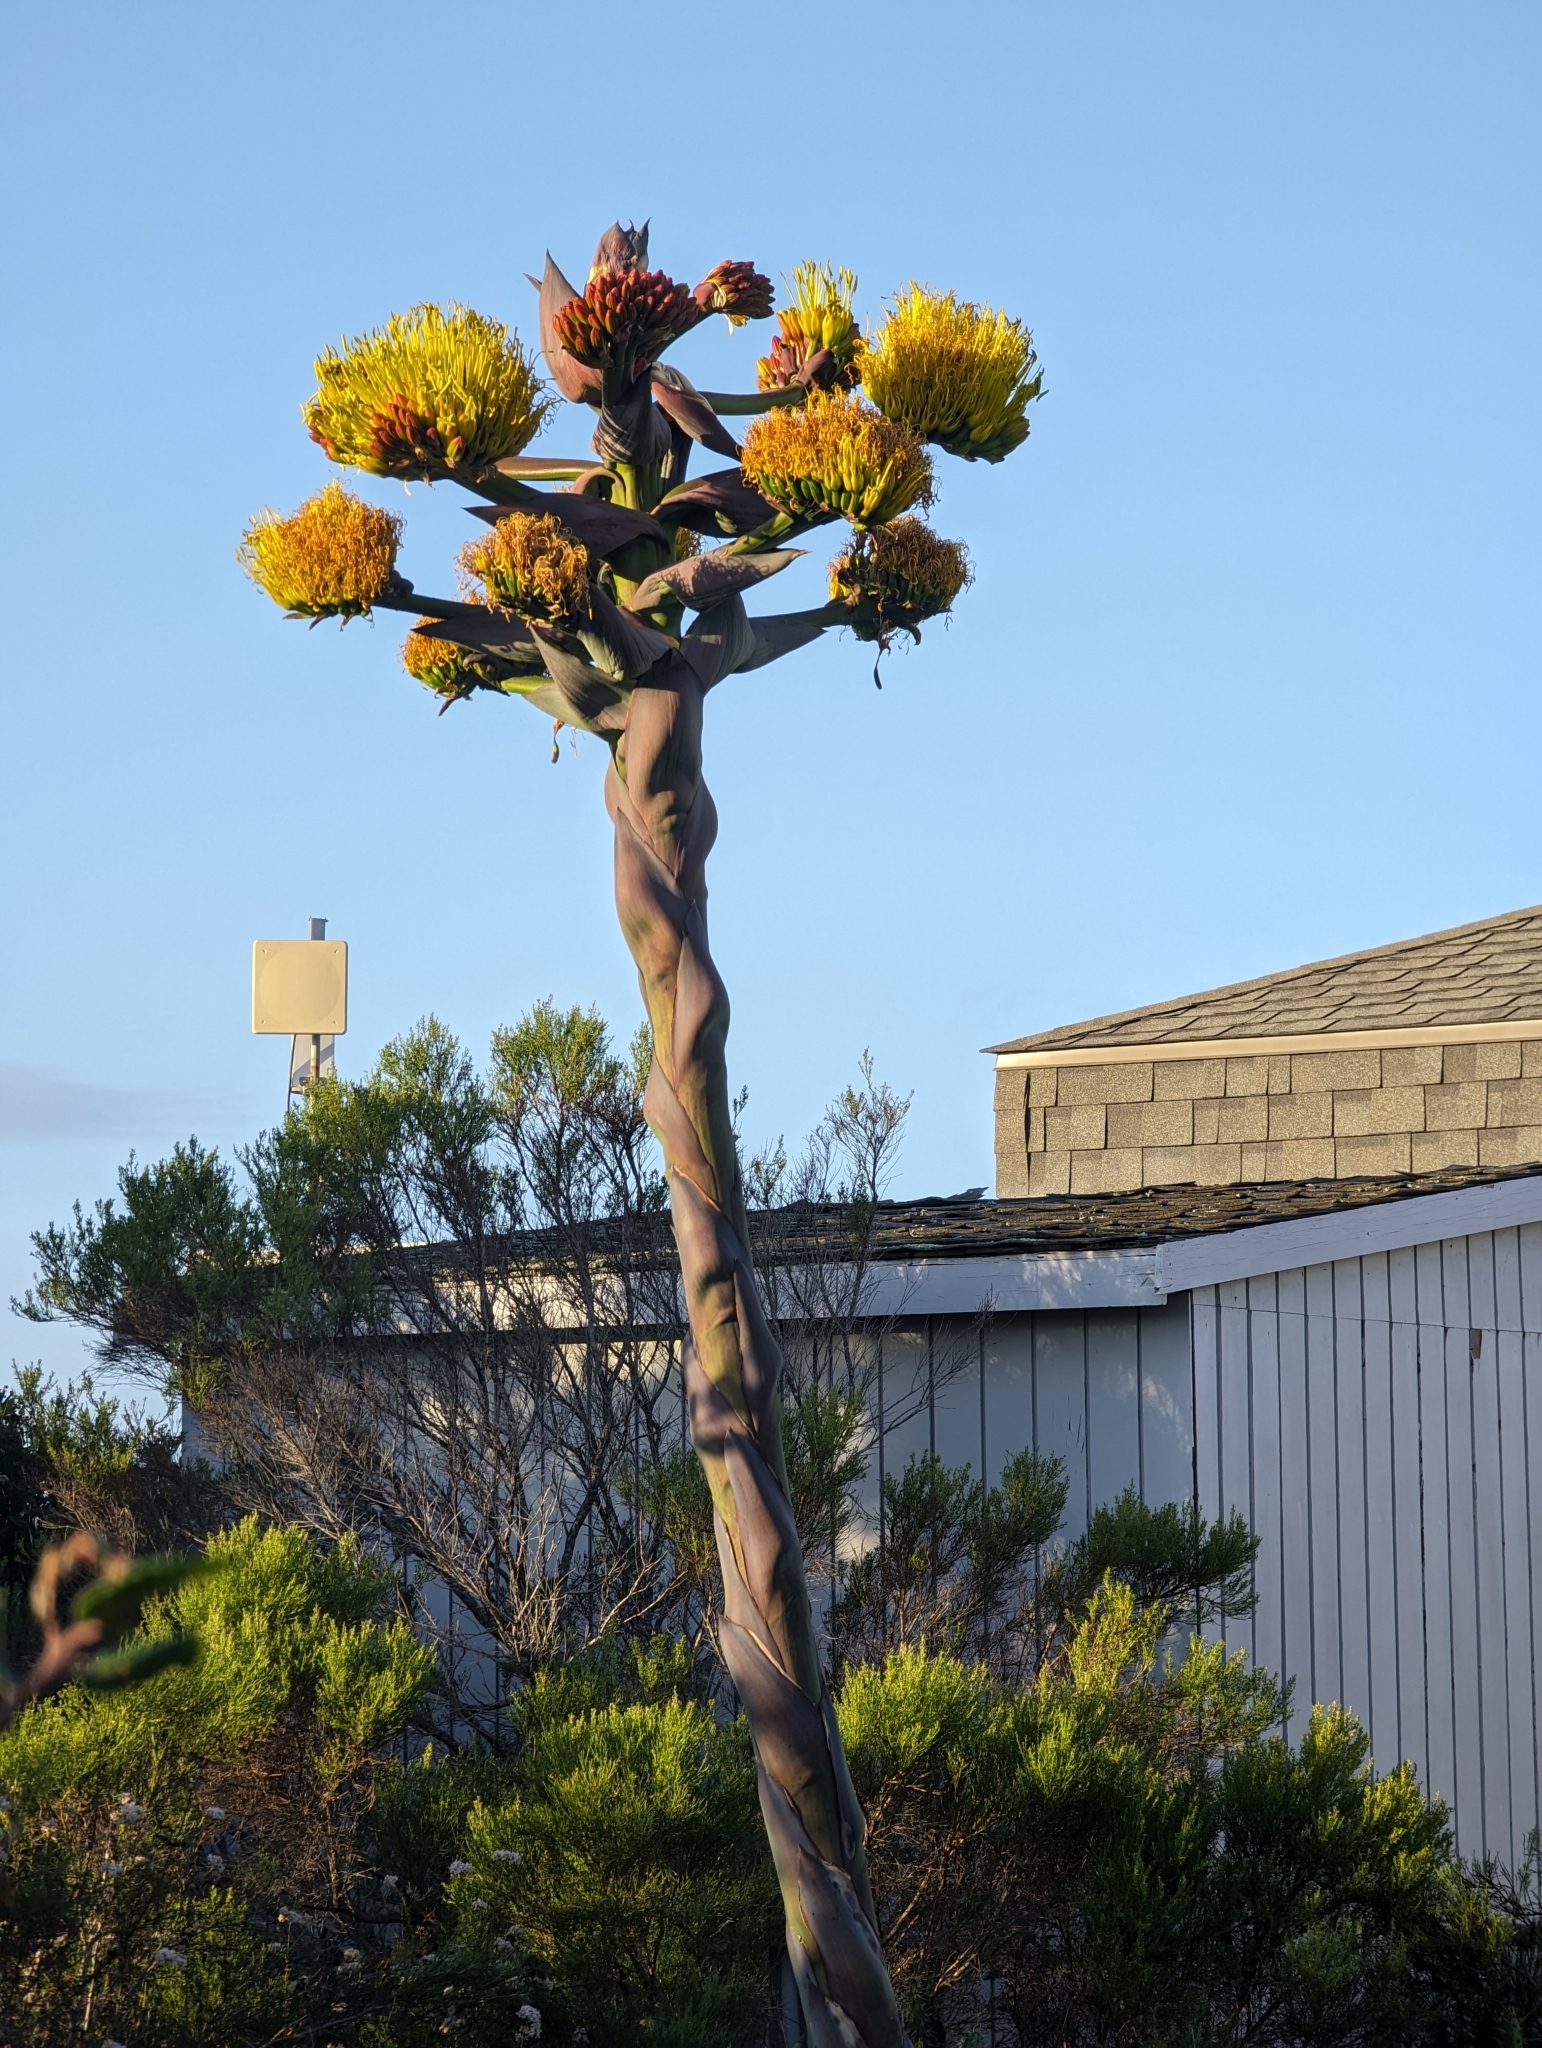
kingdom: Plantae
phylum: Tracheophyta
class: Liliopsida
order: Asparagales
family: Asparagaceae
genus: Agave
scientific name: Agave shawii
